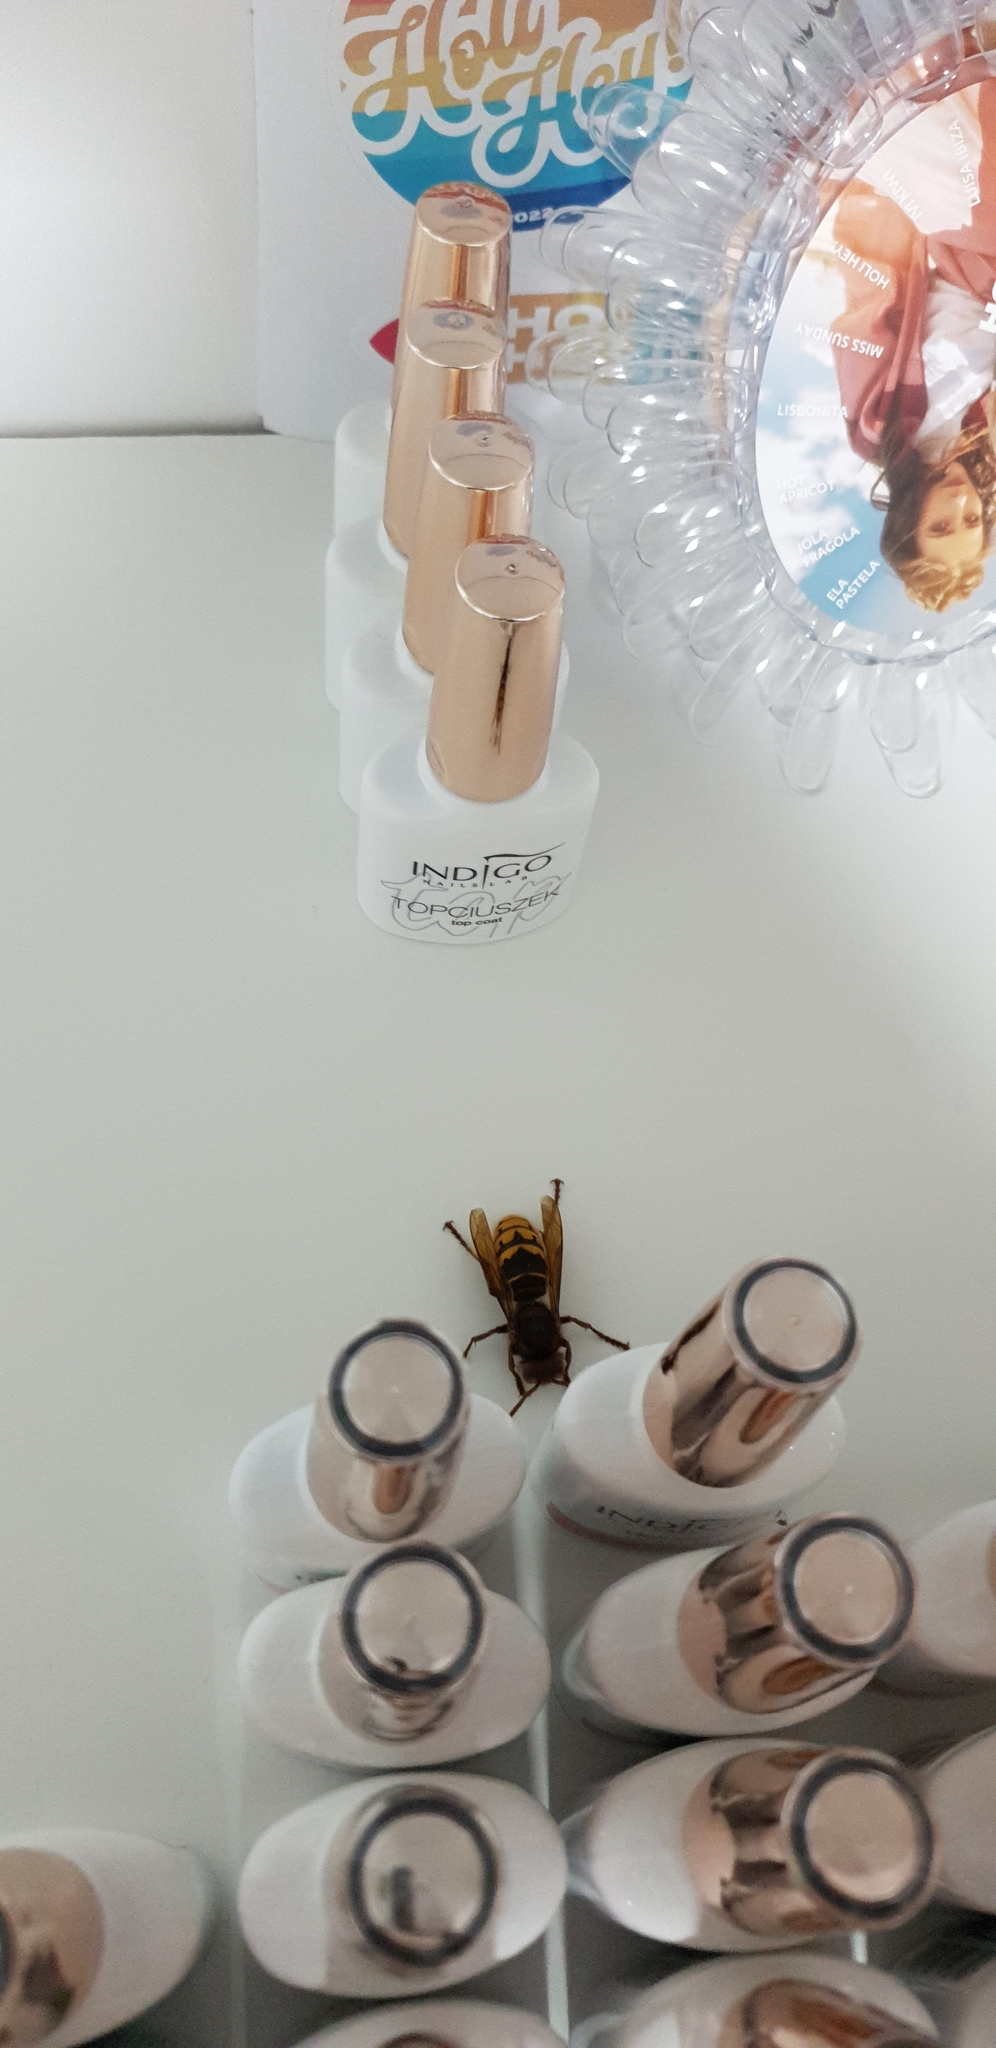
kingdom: Animalia
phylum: Arthropoda
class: Insecta
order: Hymenoptera
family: Vespidae
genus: Vespa
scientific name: Vespa crabro
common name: Hornet
